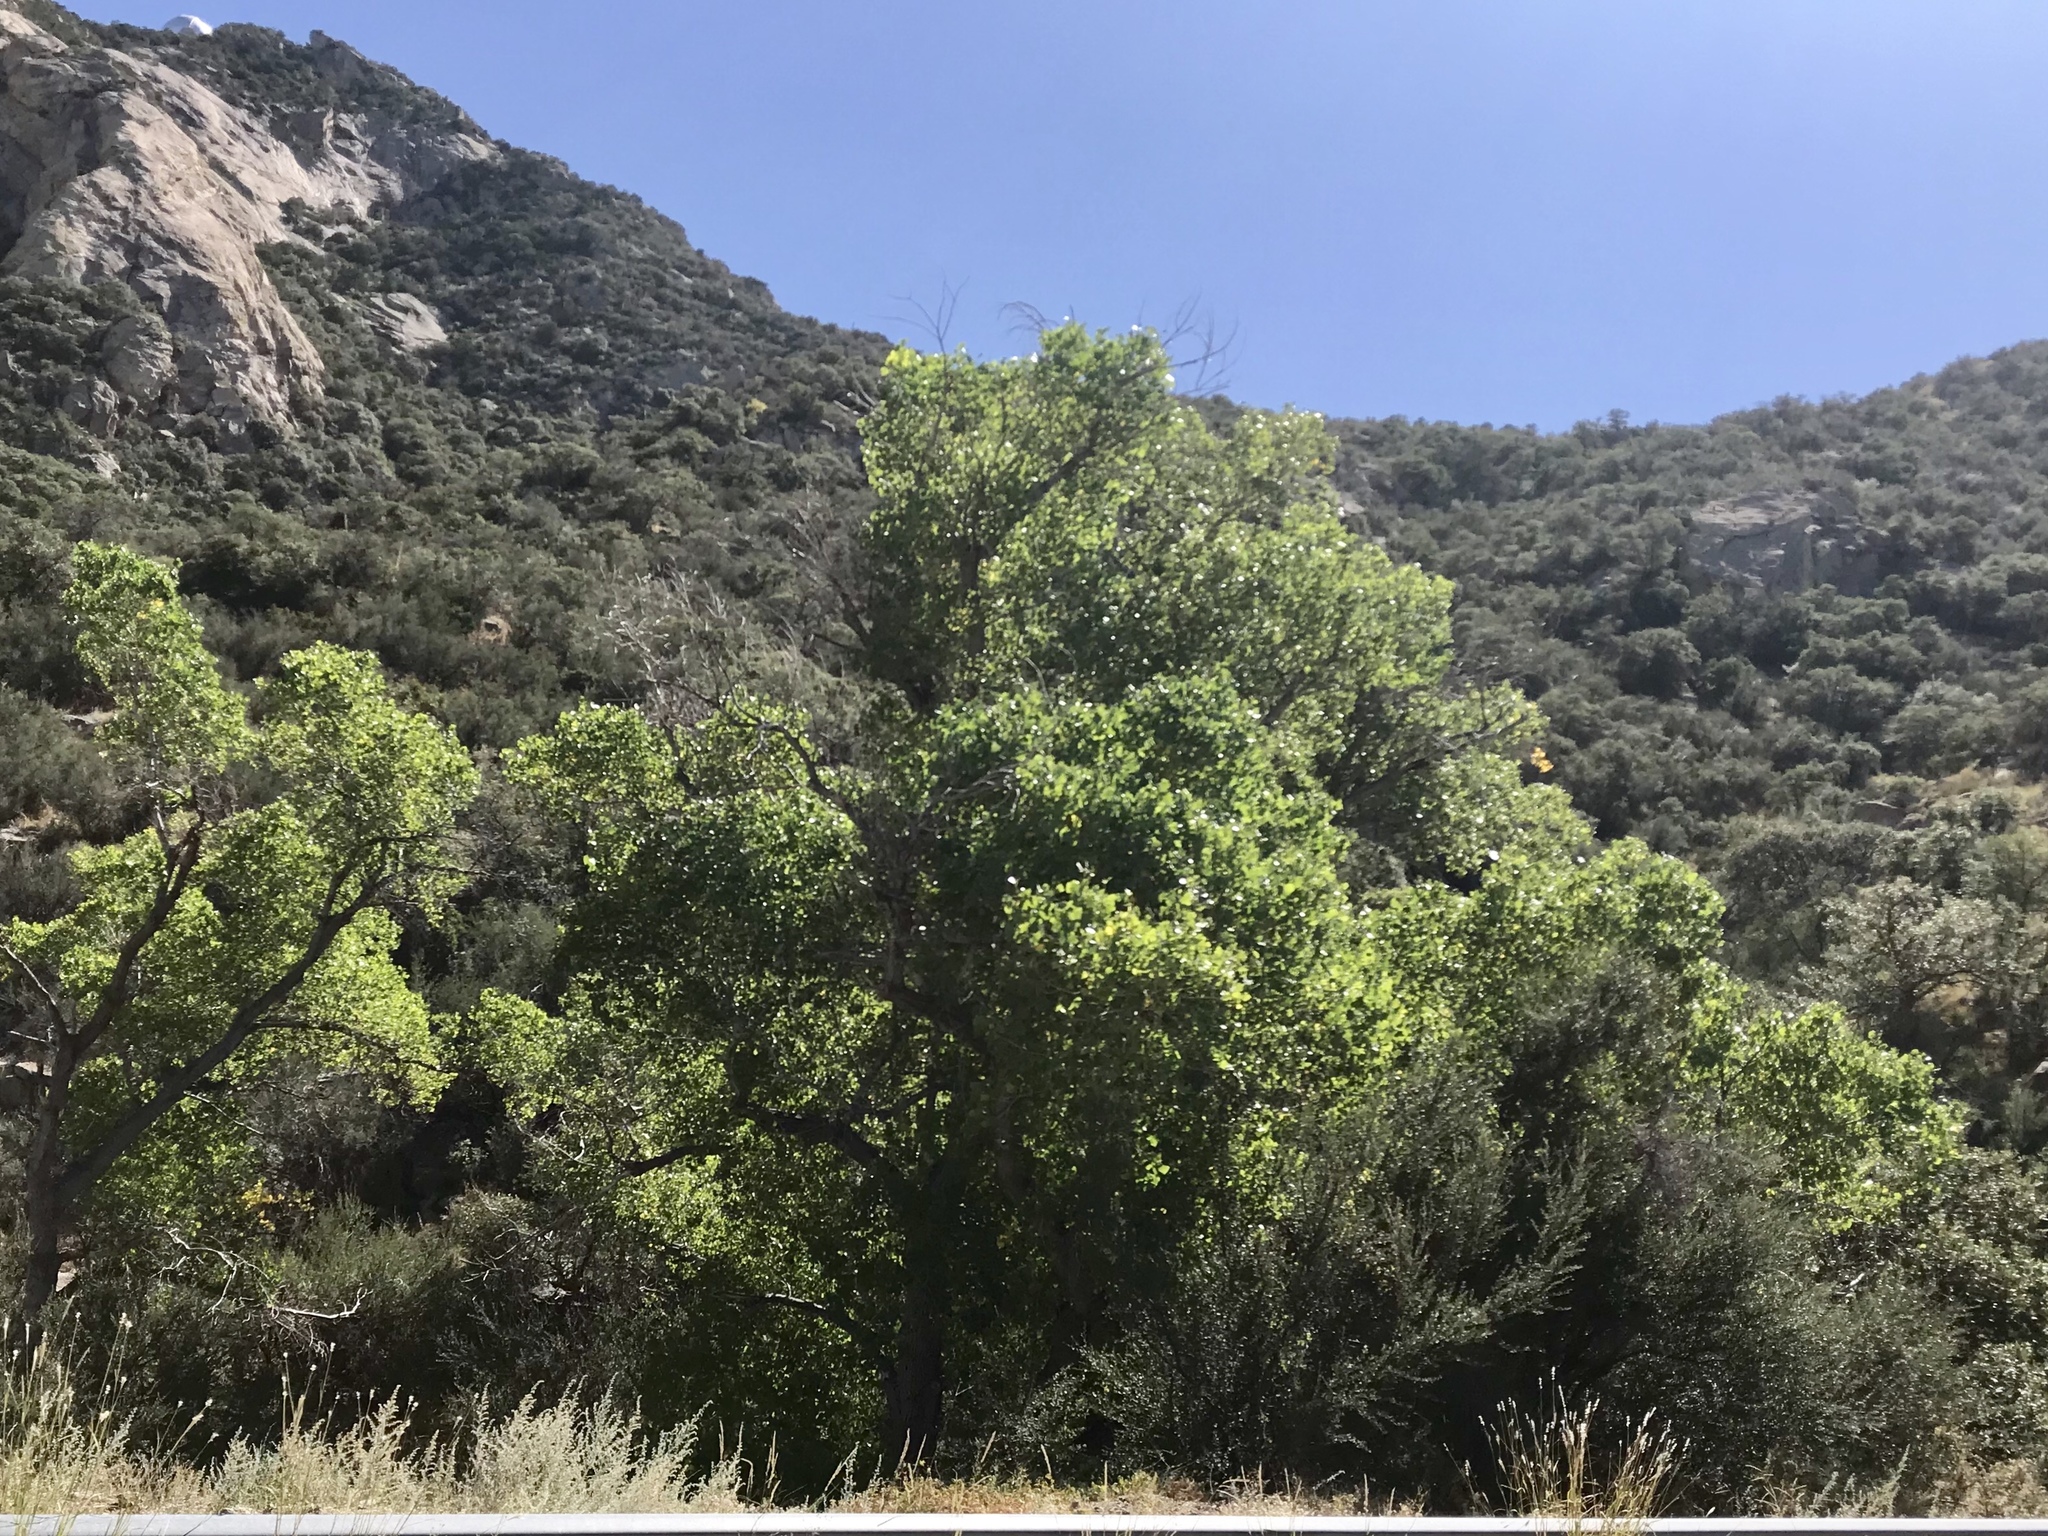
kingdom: Plantae
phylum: Tracheophyta
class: Magnoliopsida
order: Malpighiales
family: Salicaceae
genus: Populus
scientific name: Populus fremontii
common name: Fremont's cottonwood
